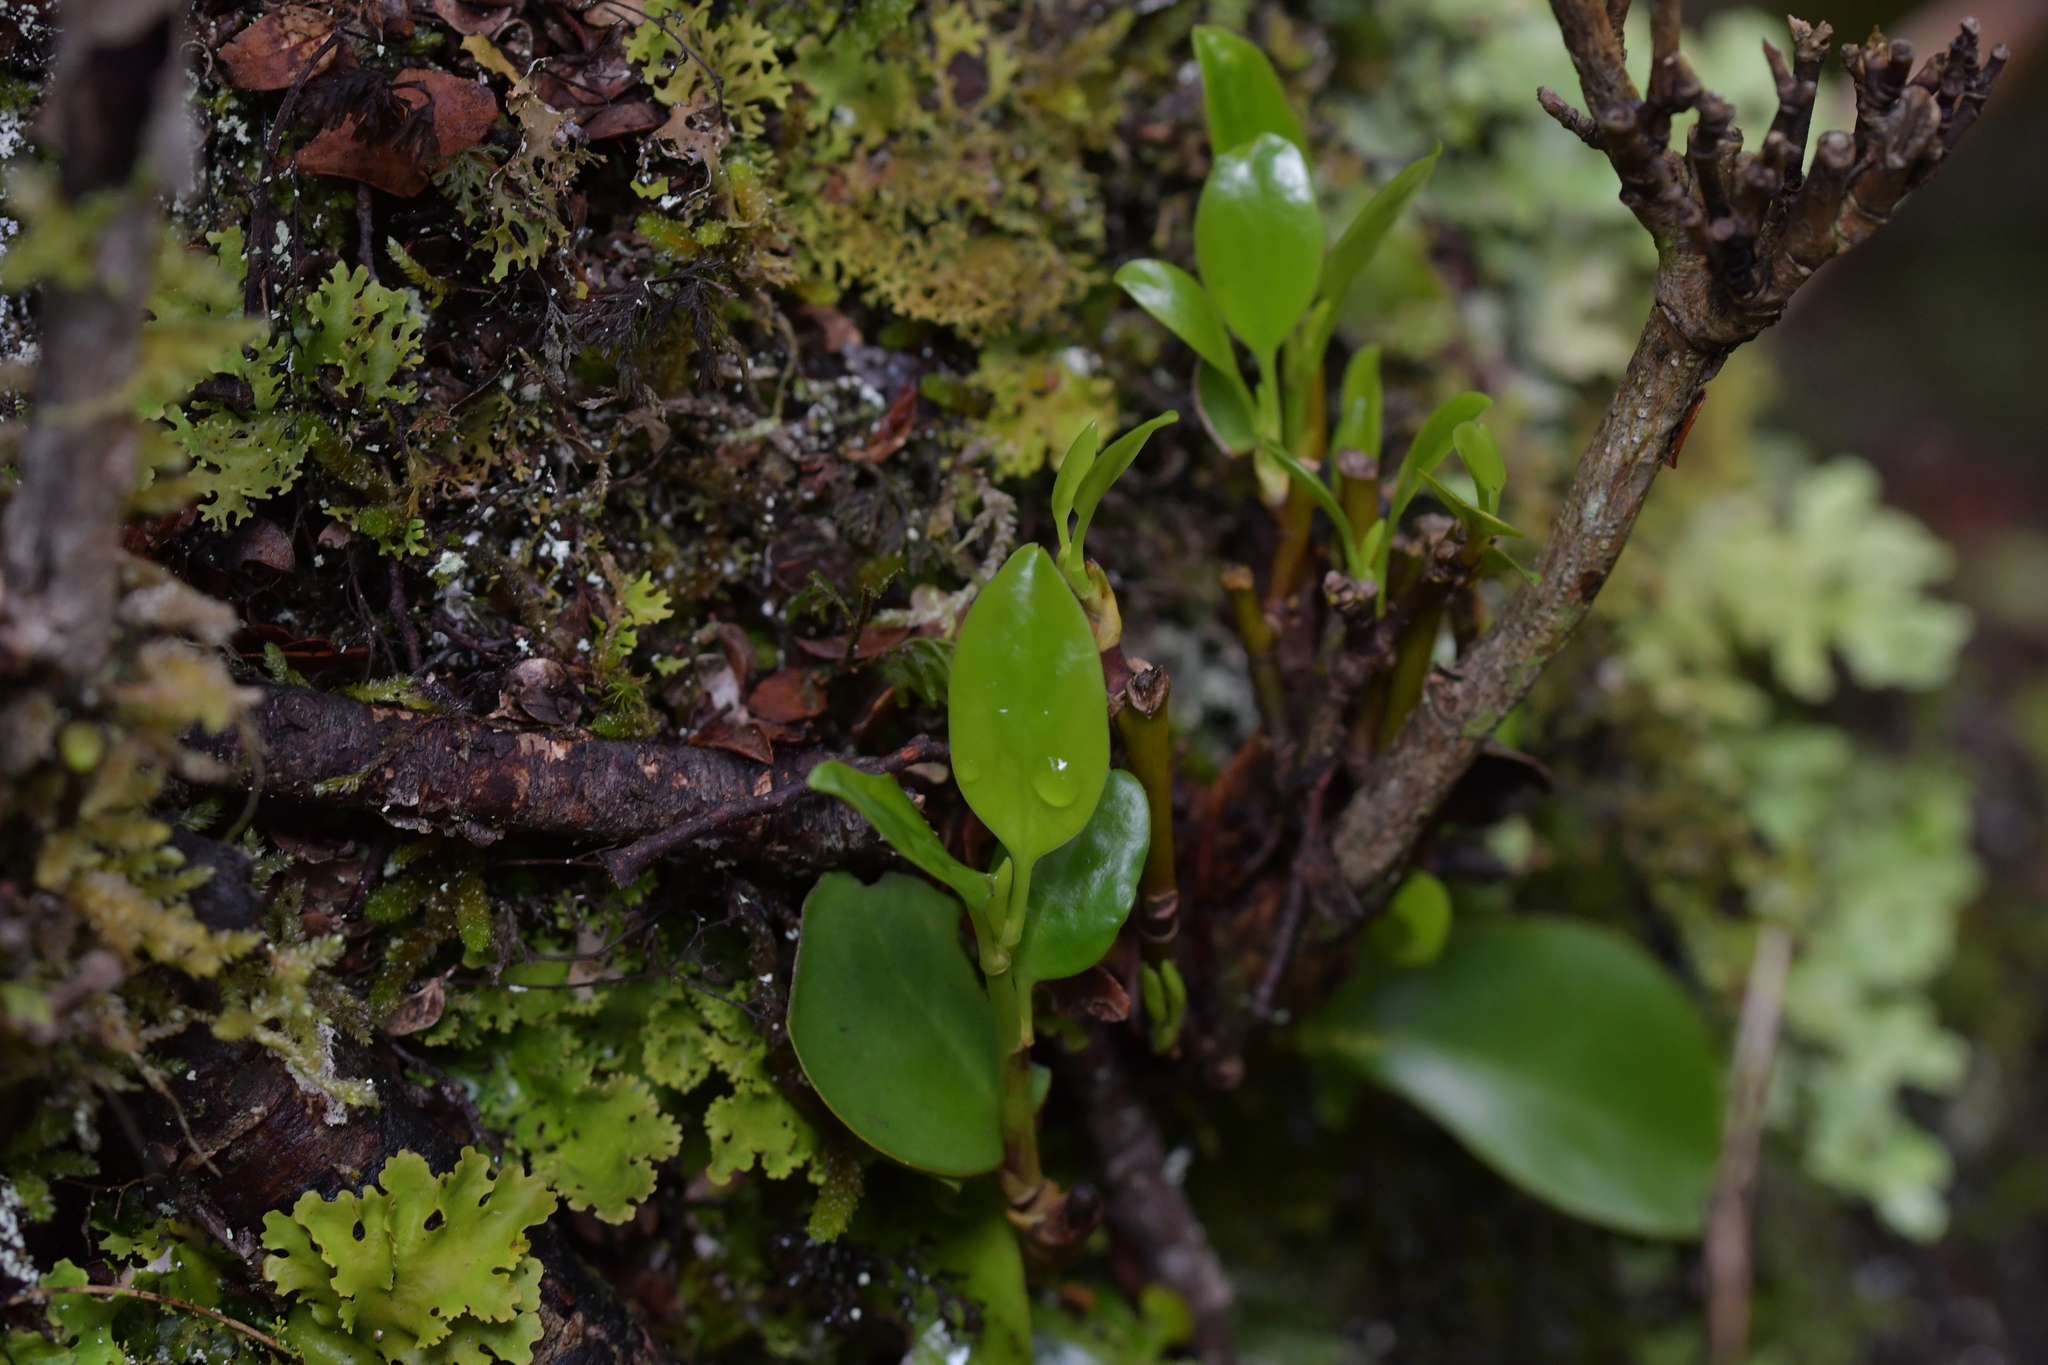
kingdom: Plantae
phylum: Tracheophyta
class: Magnoliopsida
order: Apiales
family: Griseliniaceae
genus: Griselinia
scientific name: Griselinia littoralis
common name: New zealand broadleaf
